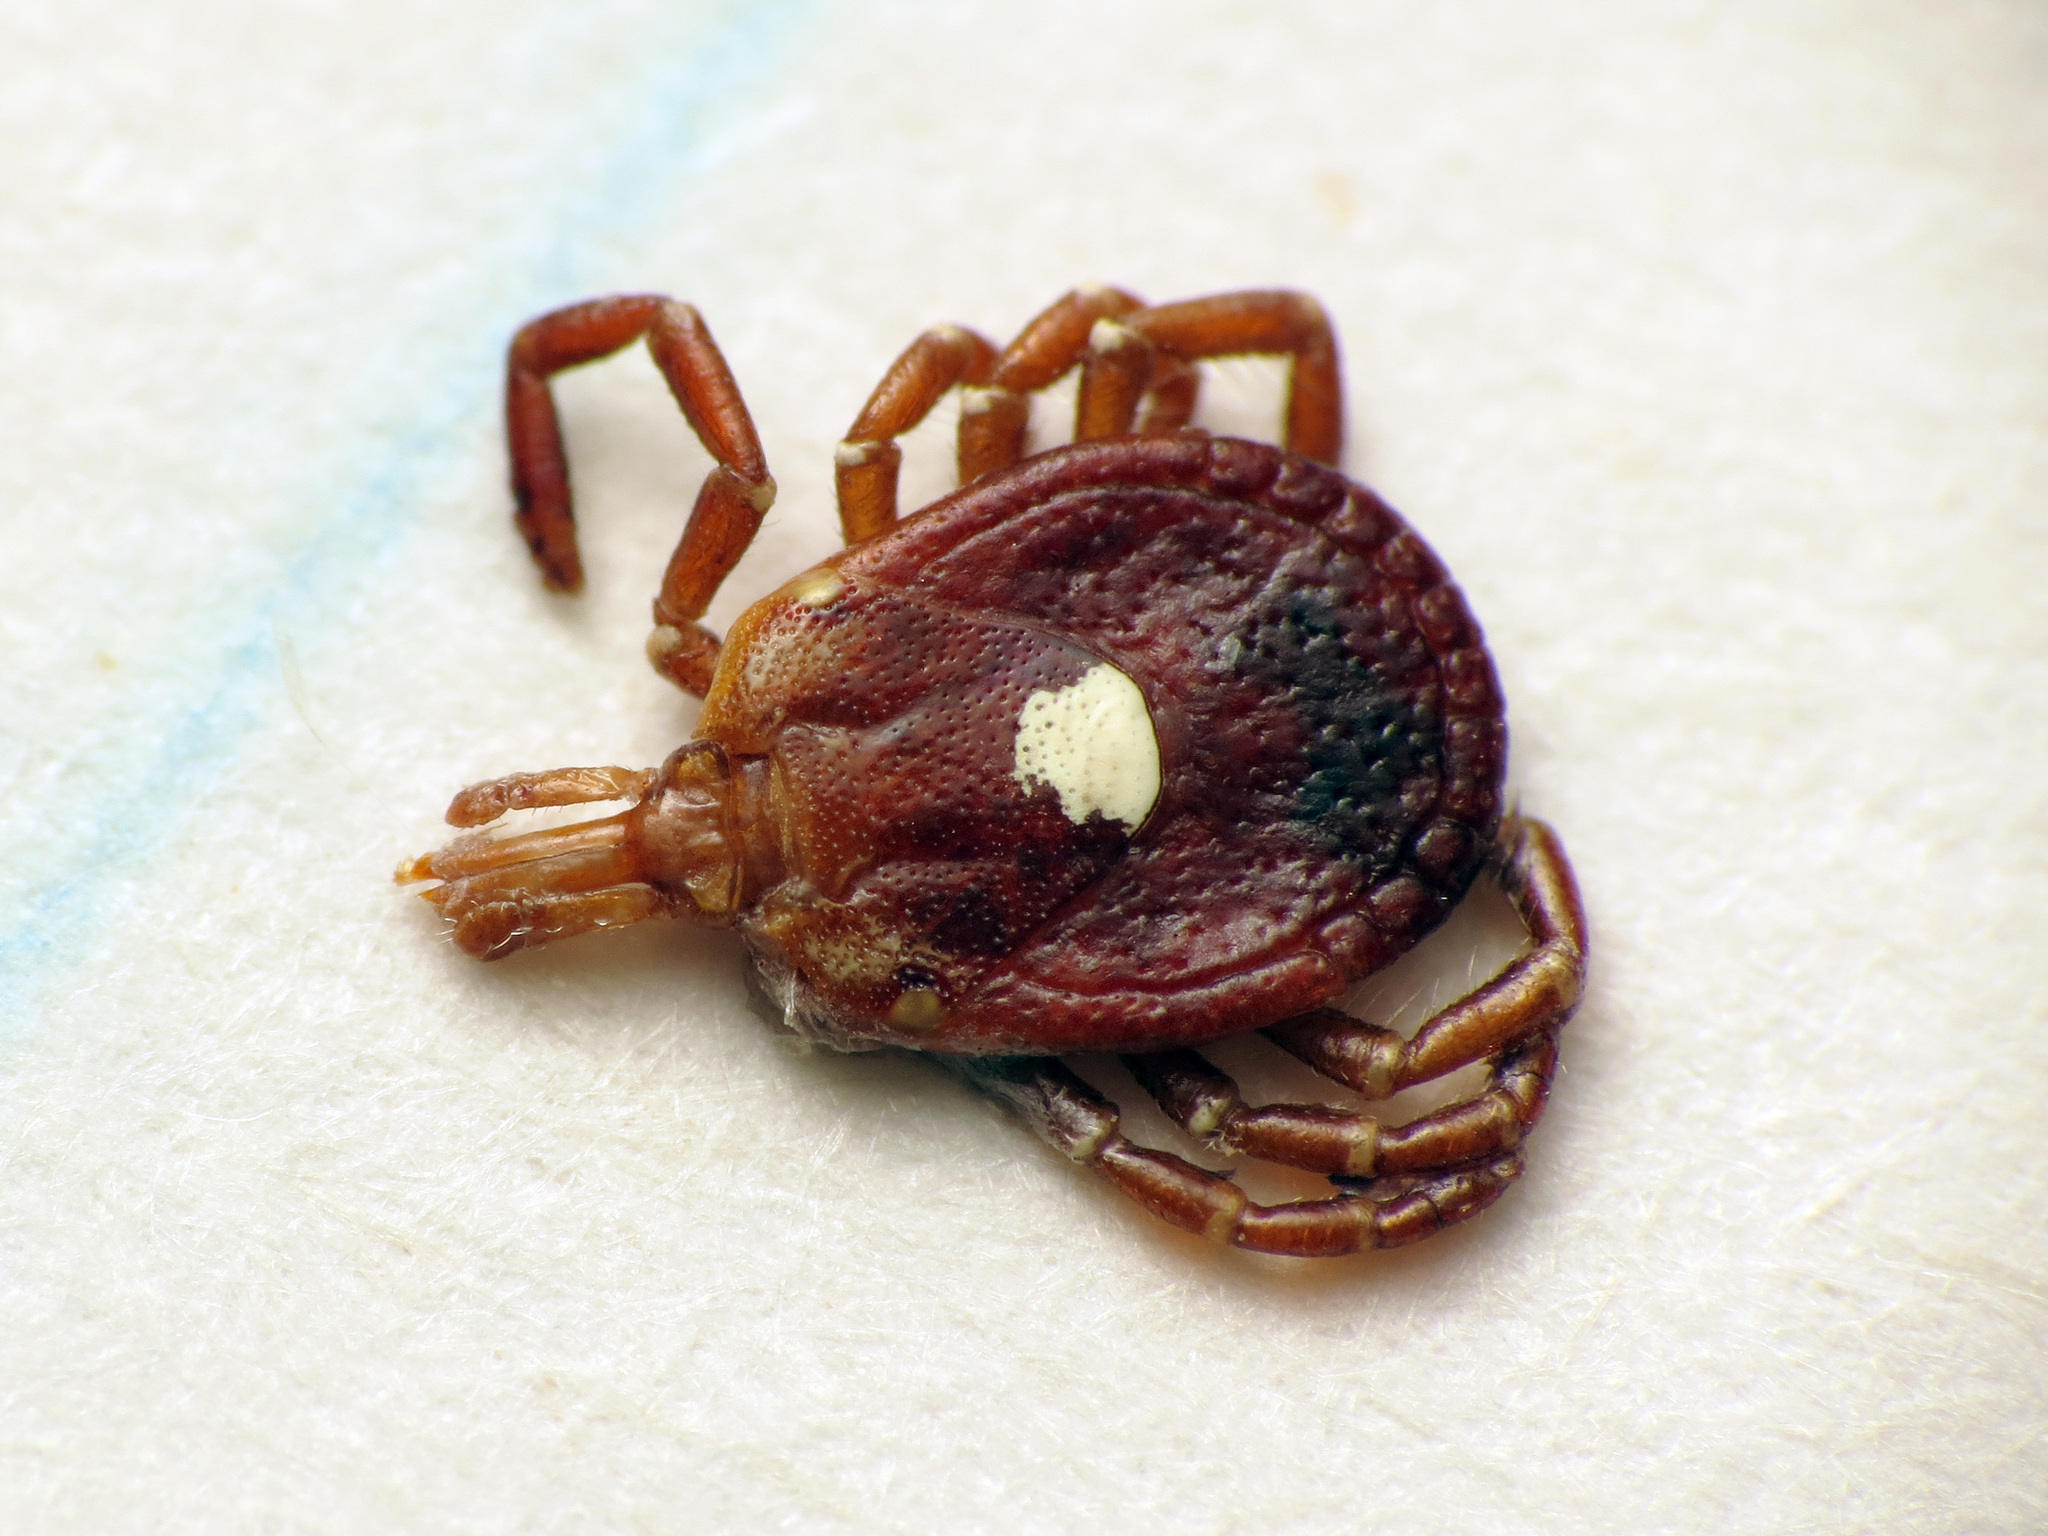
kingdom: Animalia
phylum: Arthropoda
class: Arachnida
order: Ixodida
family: Ixodidae
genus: Amblyomma
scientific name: Amblyomma americanum
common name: Lone star tick
